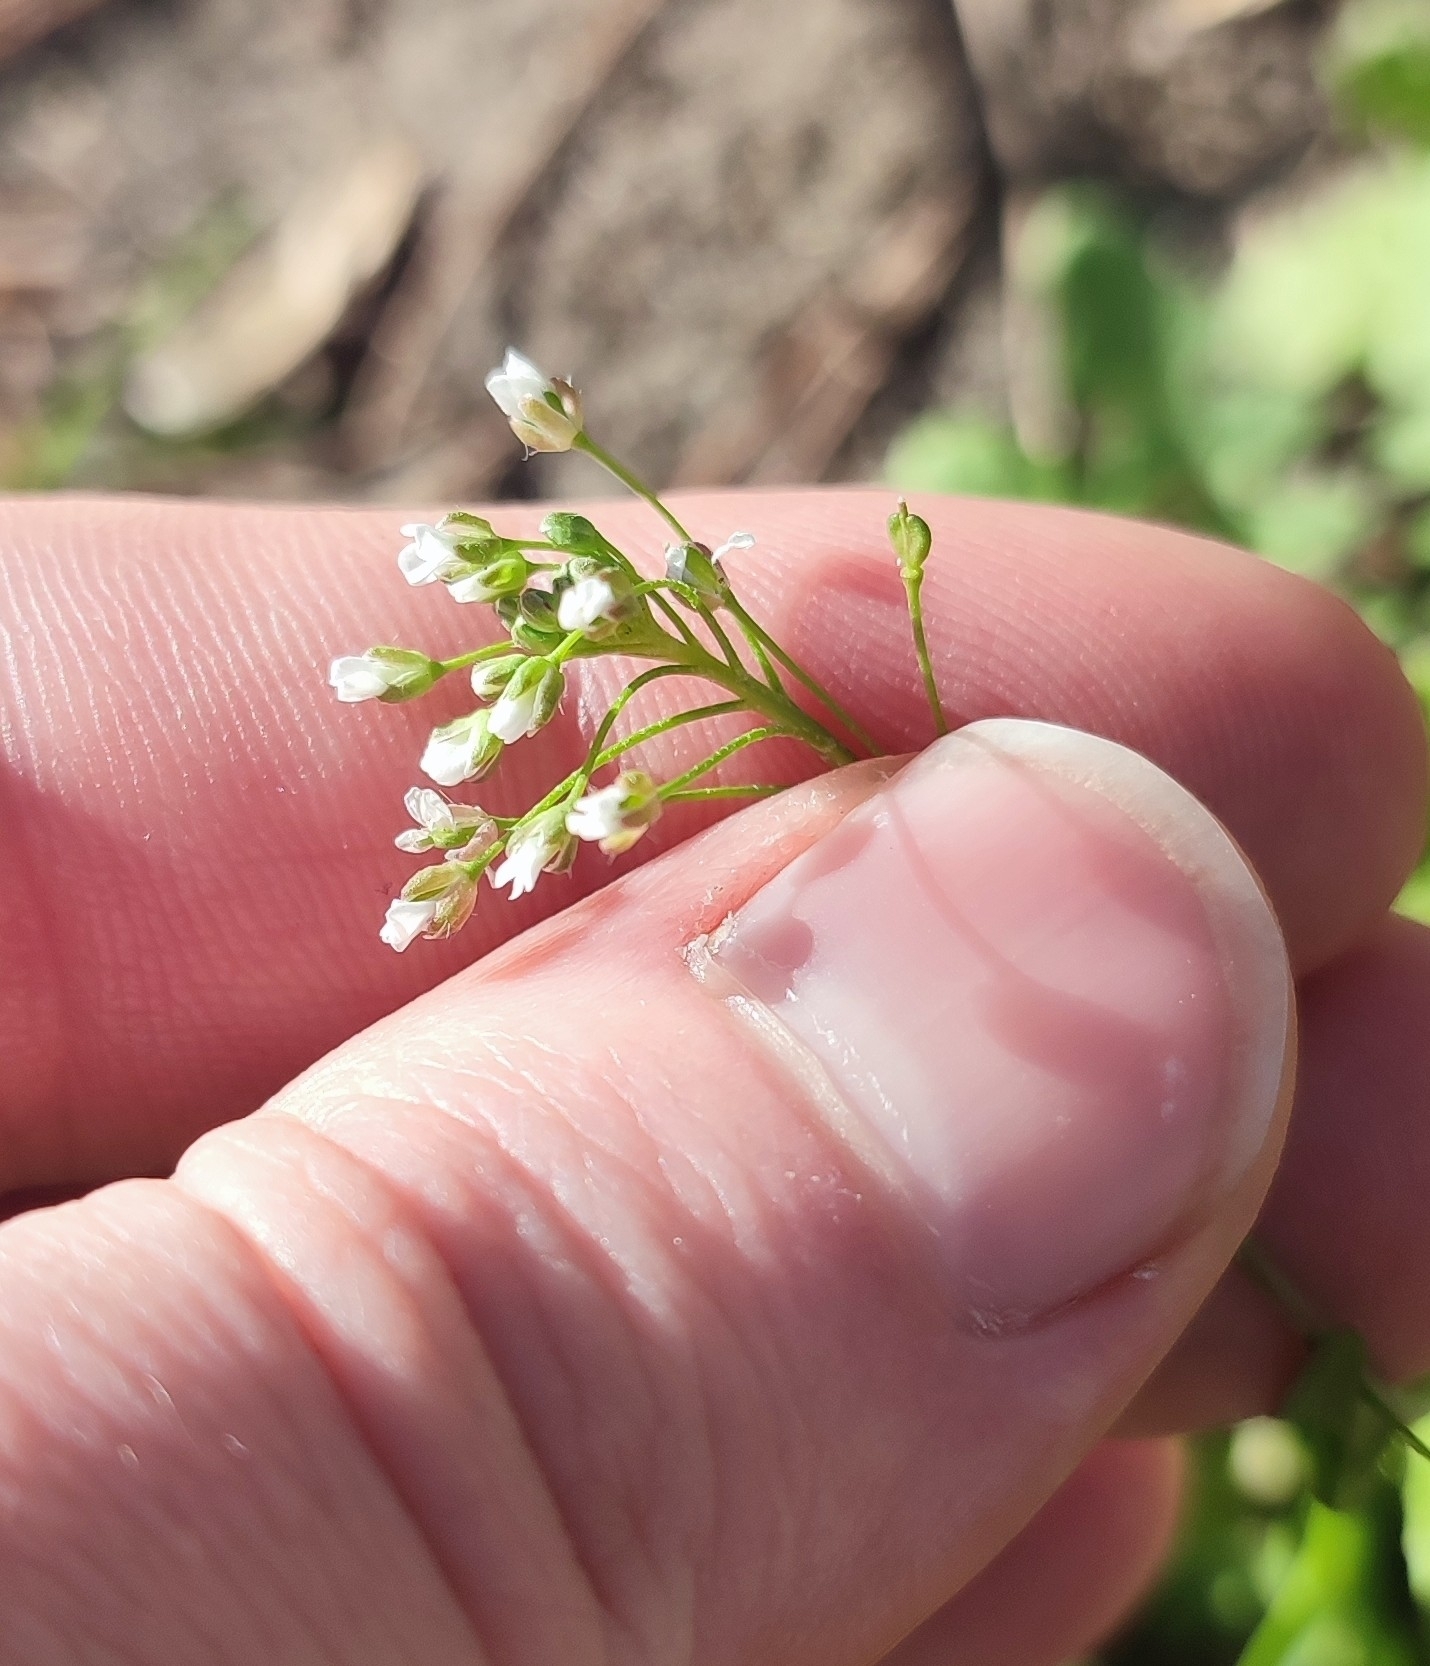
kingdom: Plantae
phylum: Tracheophyta
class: Magnoliopsida
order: Brassicales
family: Brassicaceae
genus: Capsella
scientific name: Capsella bursa-pastoris
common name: Shepherd's purse
